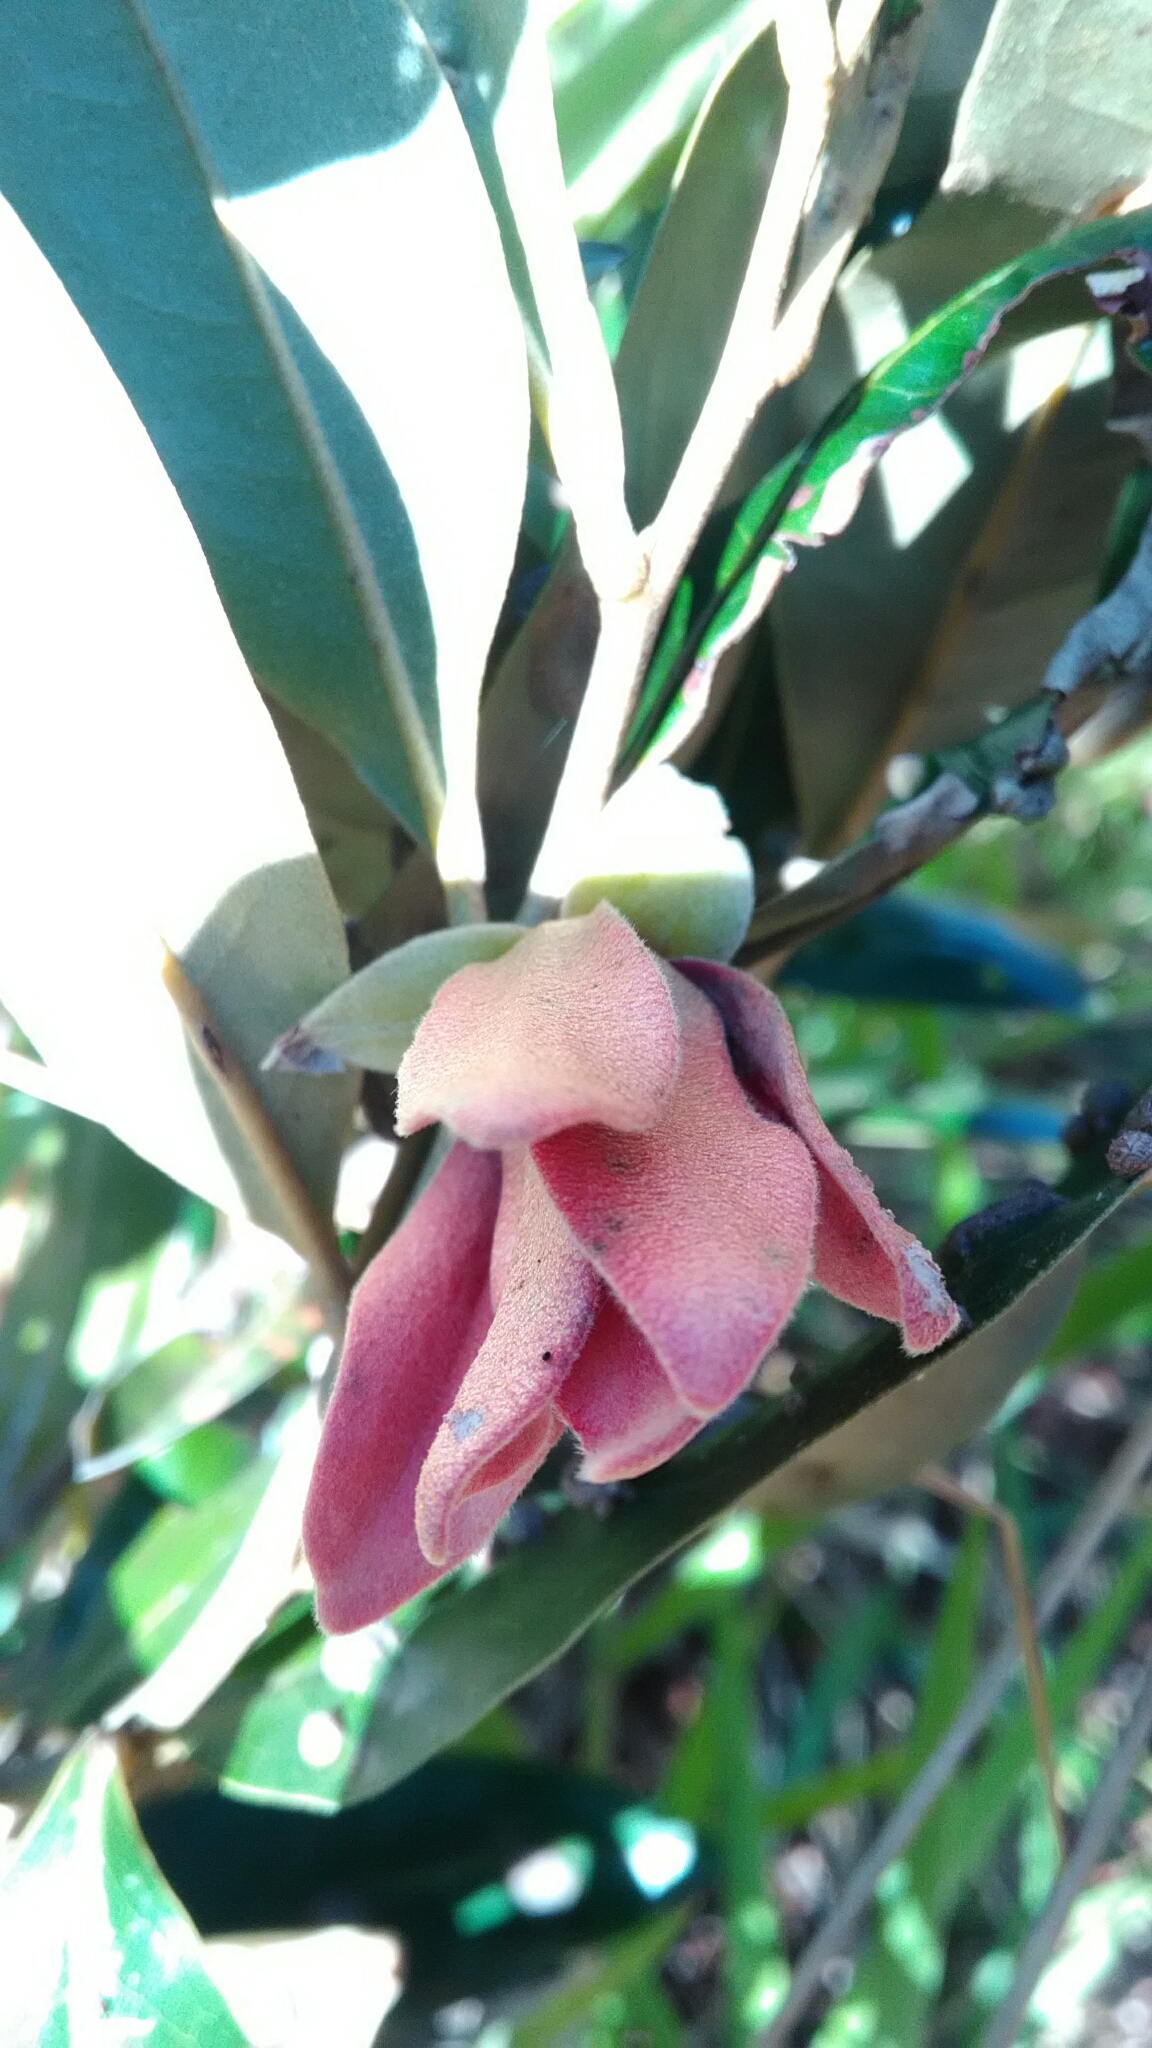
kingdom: Plantae
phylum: Tracheophyta
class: Magnoliopsida
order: Magnoliales
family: Annonaceae
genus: Duguetia
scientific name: Duguetia furfuracea
